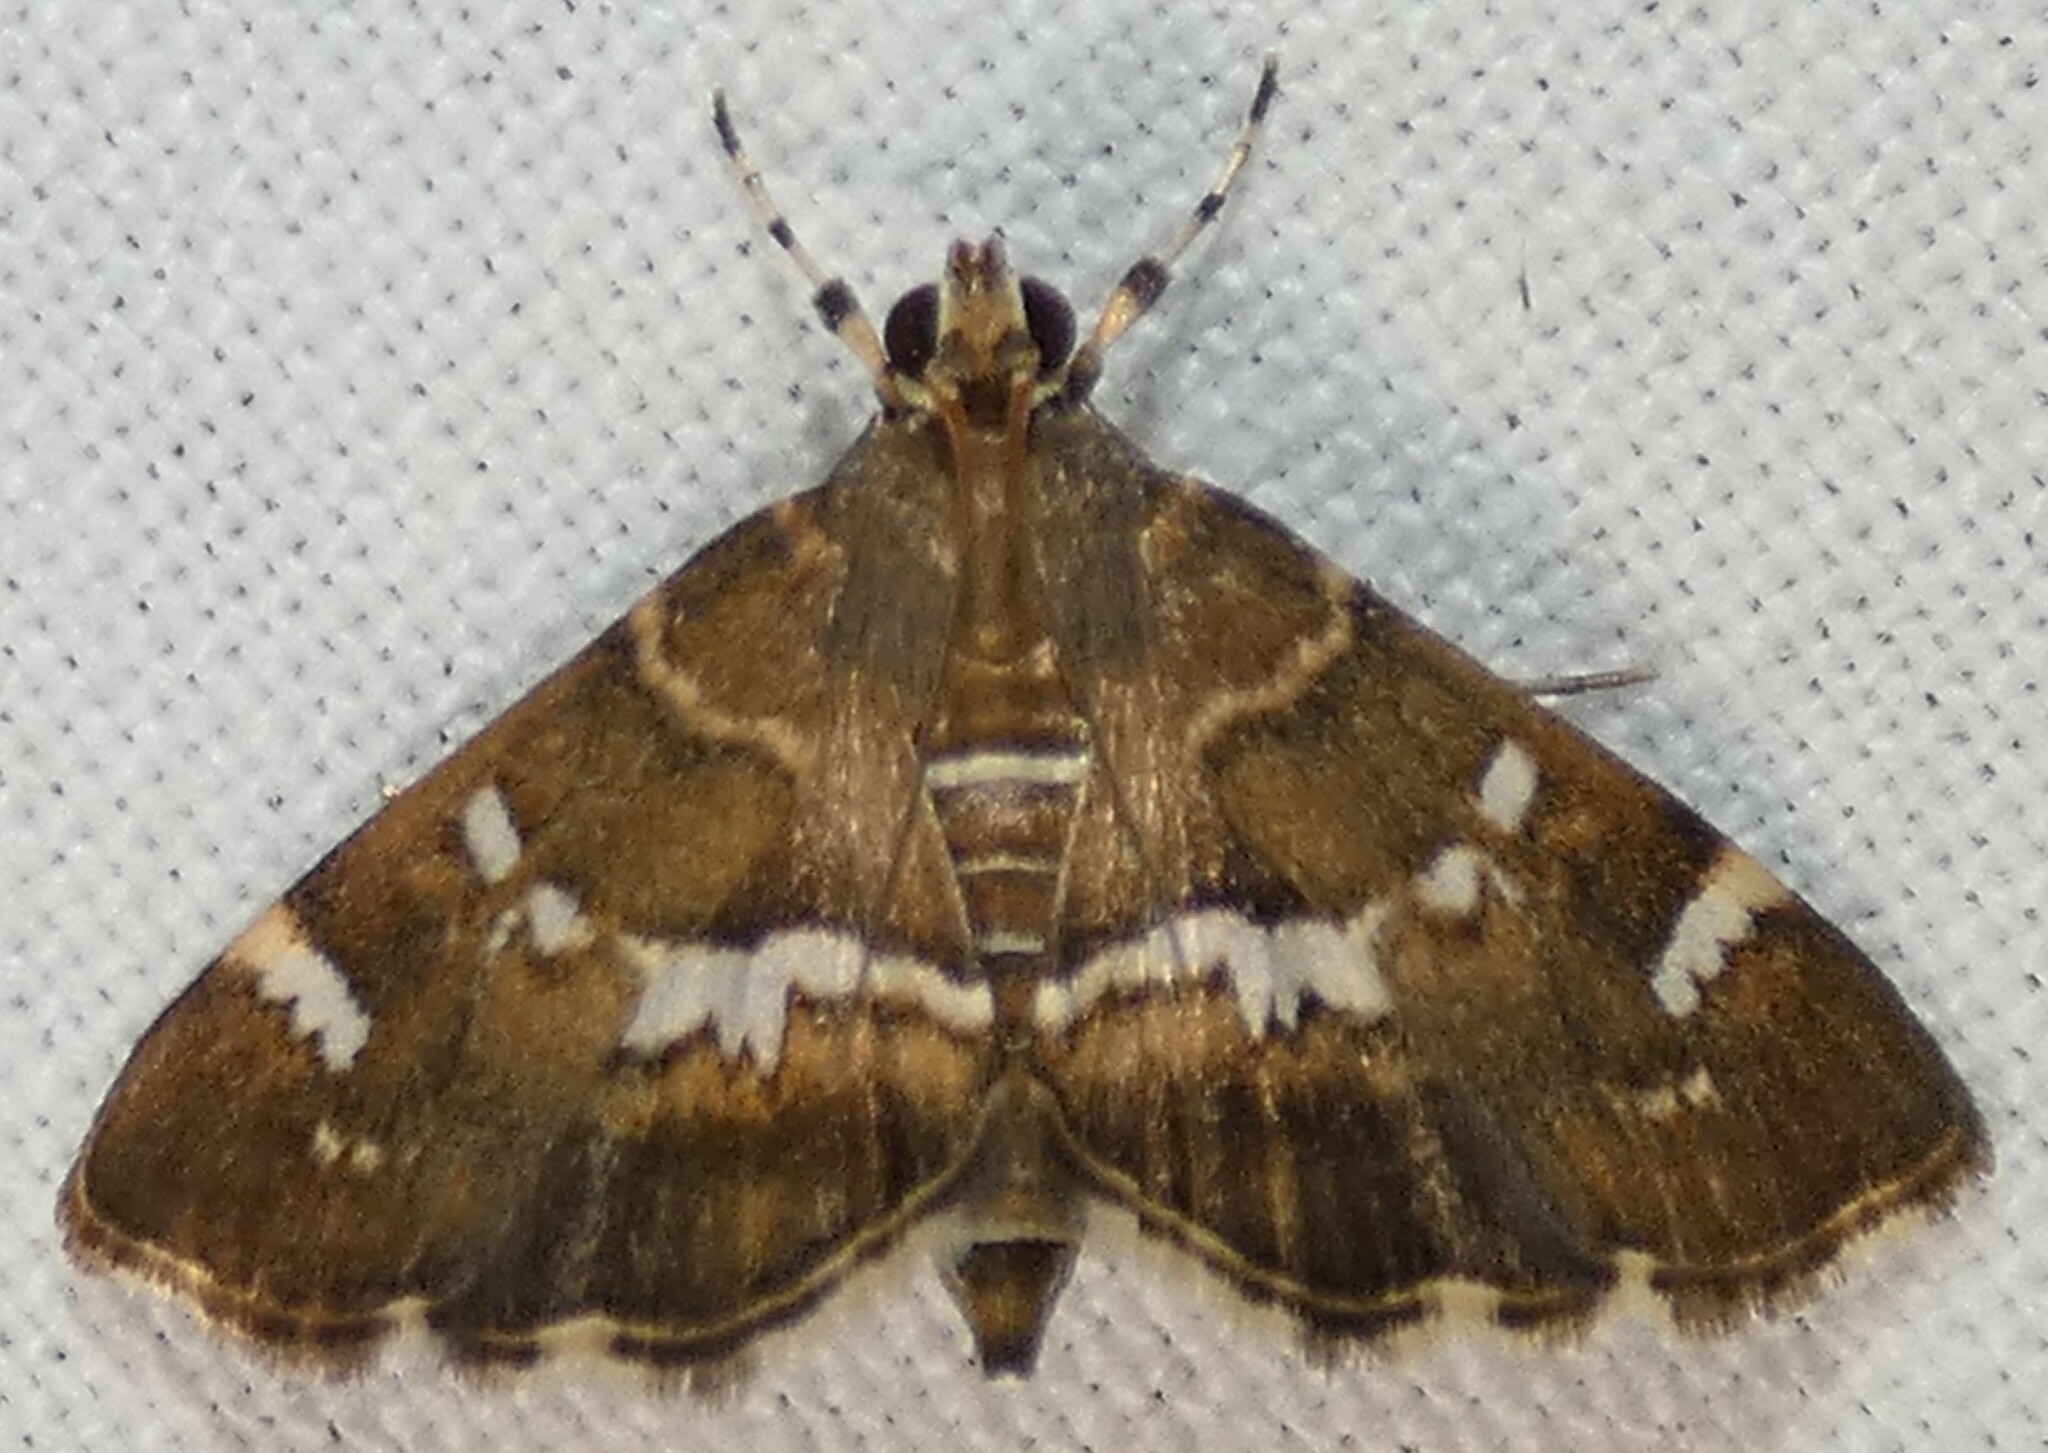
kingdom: Animalia
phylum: Arthropoda
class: Insecta
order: Lepidoptera
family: Crambidae
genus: Hymenia
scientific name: Hymenia perspectalis
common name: Spotted beet webworm
